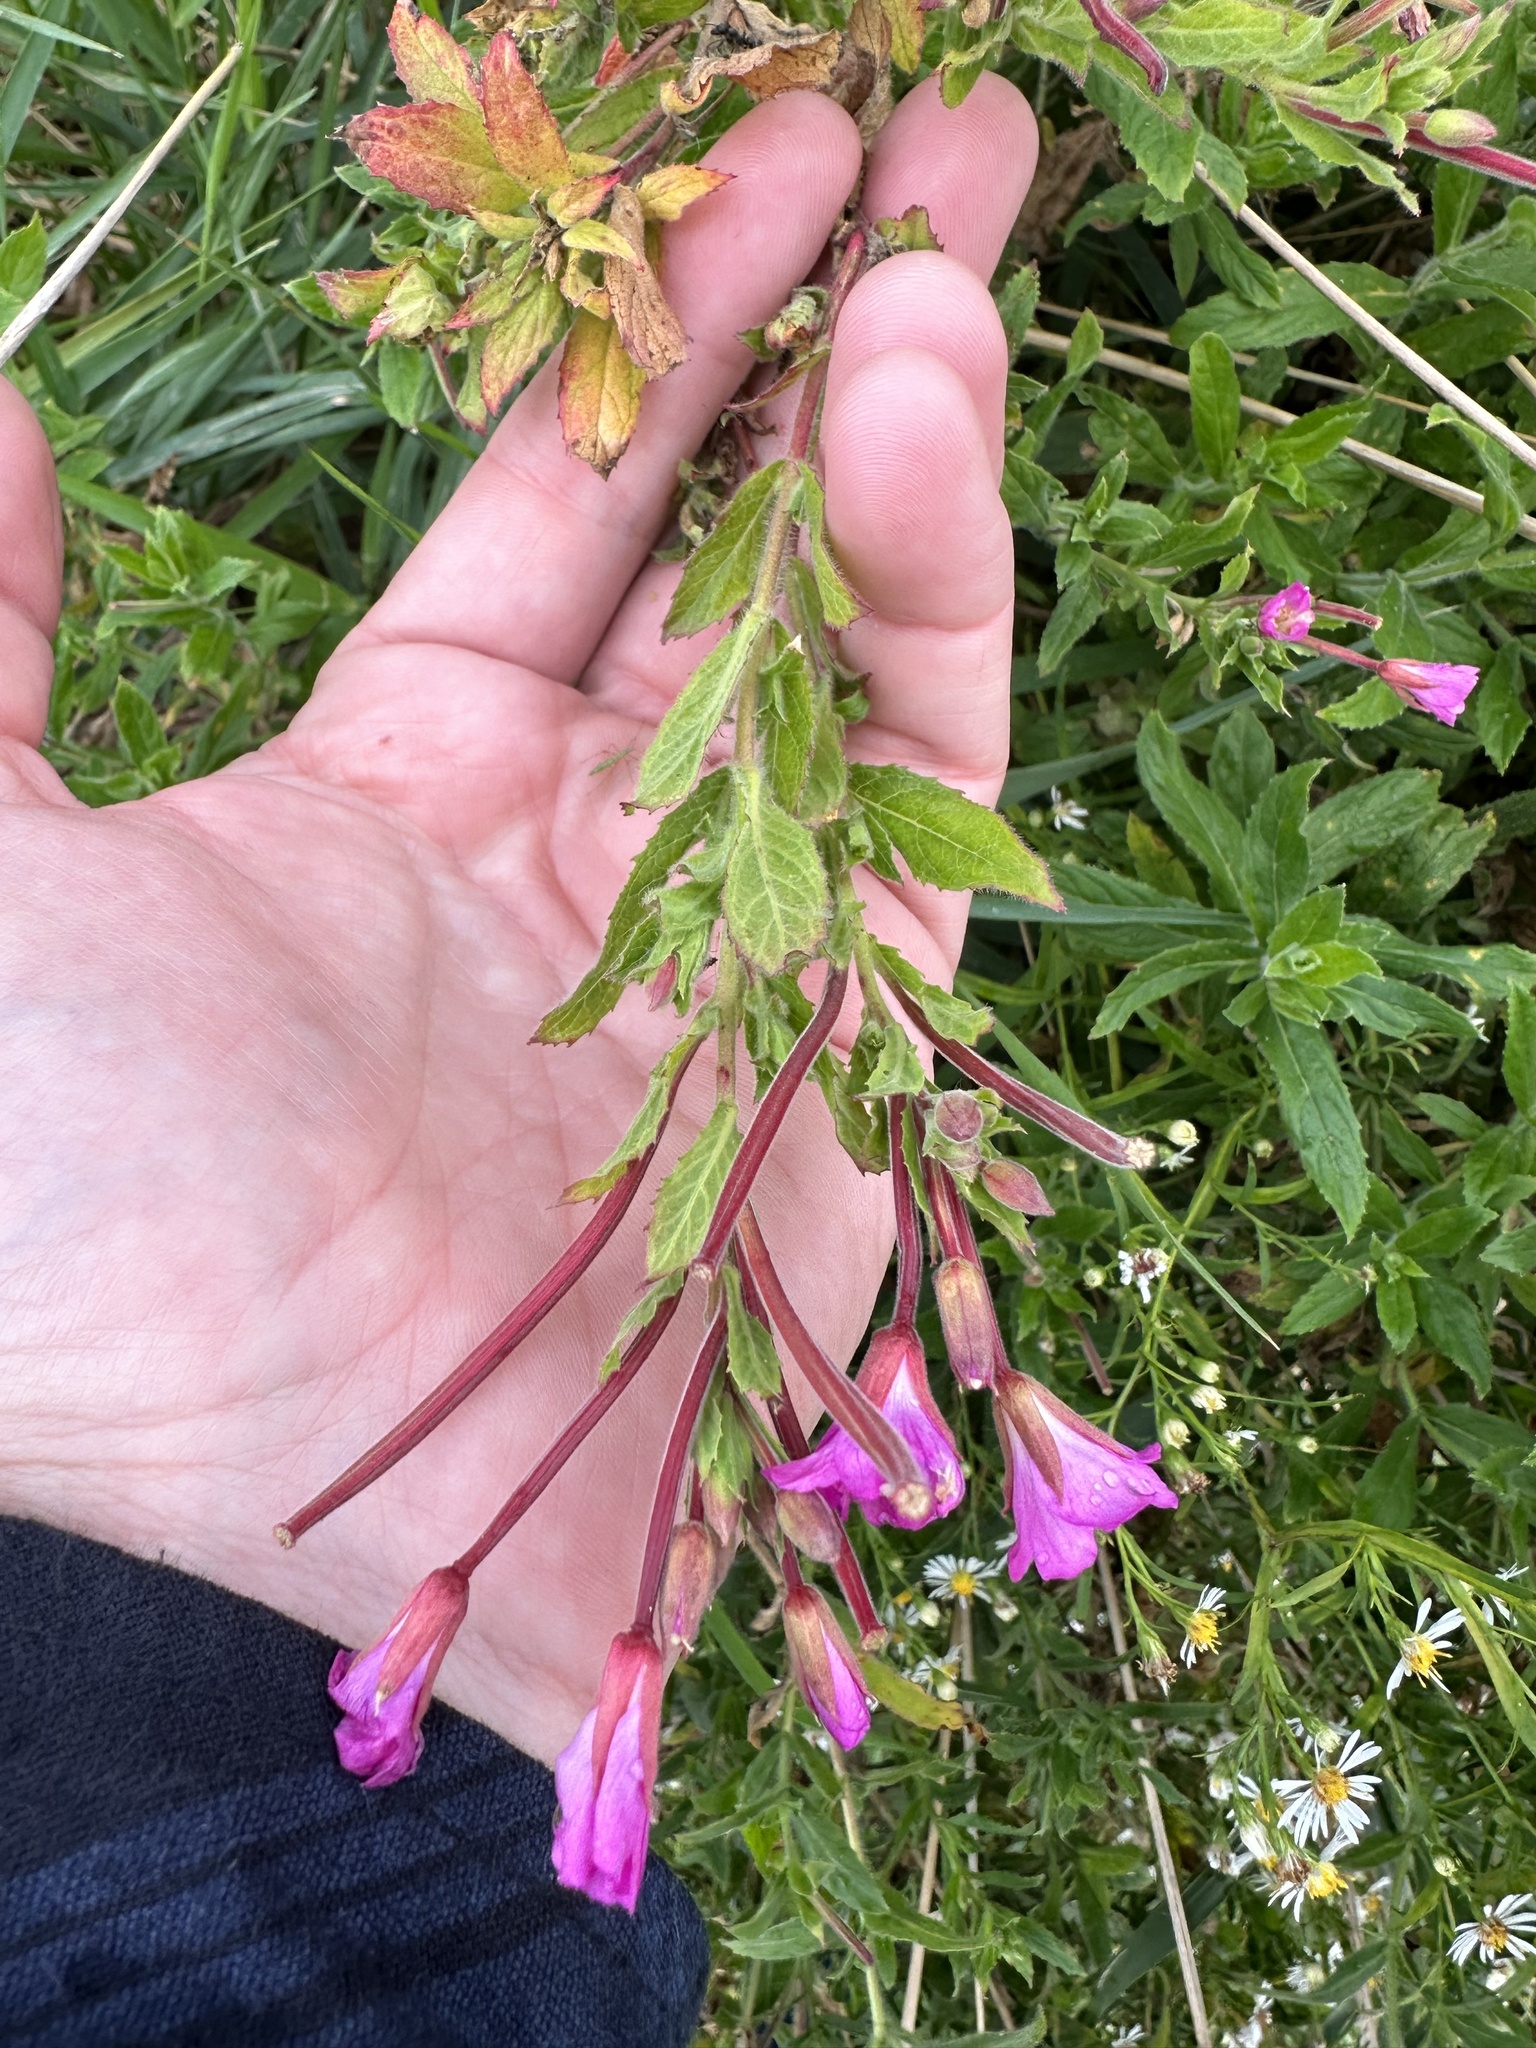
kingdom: Plantae
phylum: Tracheophyta
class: Magnoliopsida
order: Myrtales
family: Onagraceae
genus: Epilobium
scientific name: Epilobium hirsutum
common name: Great willowherb
